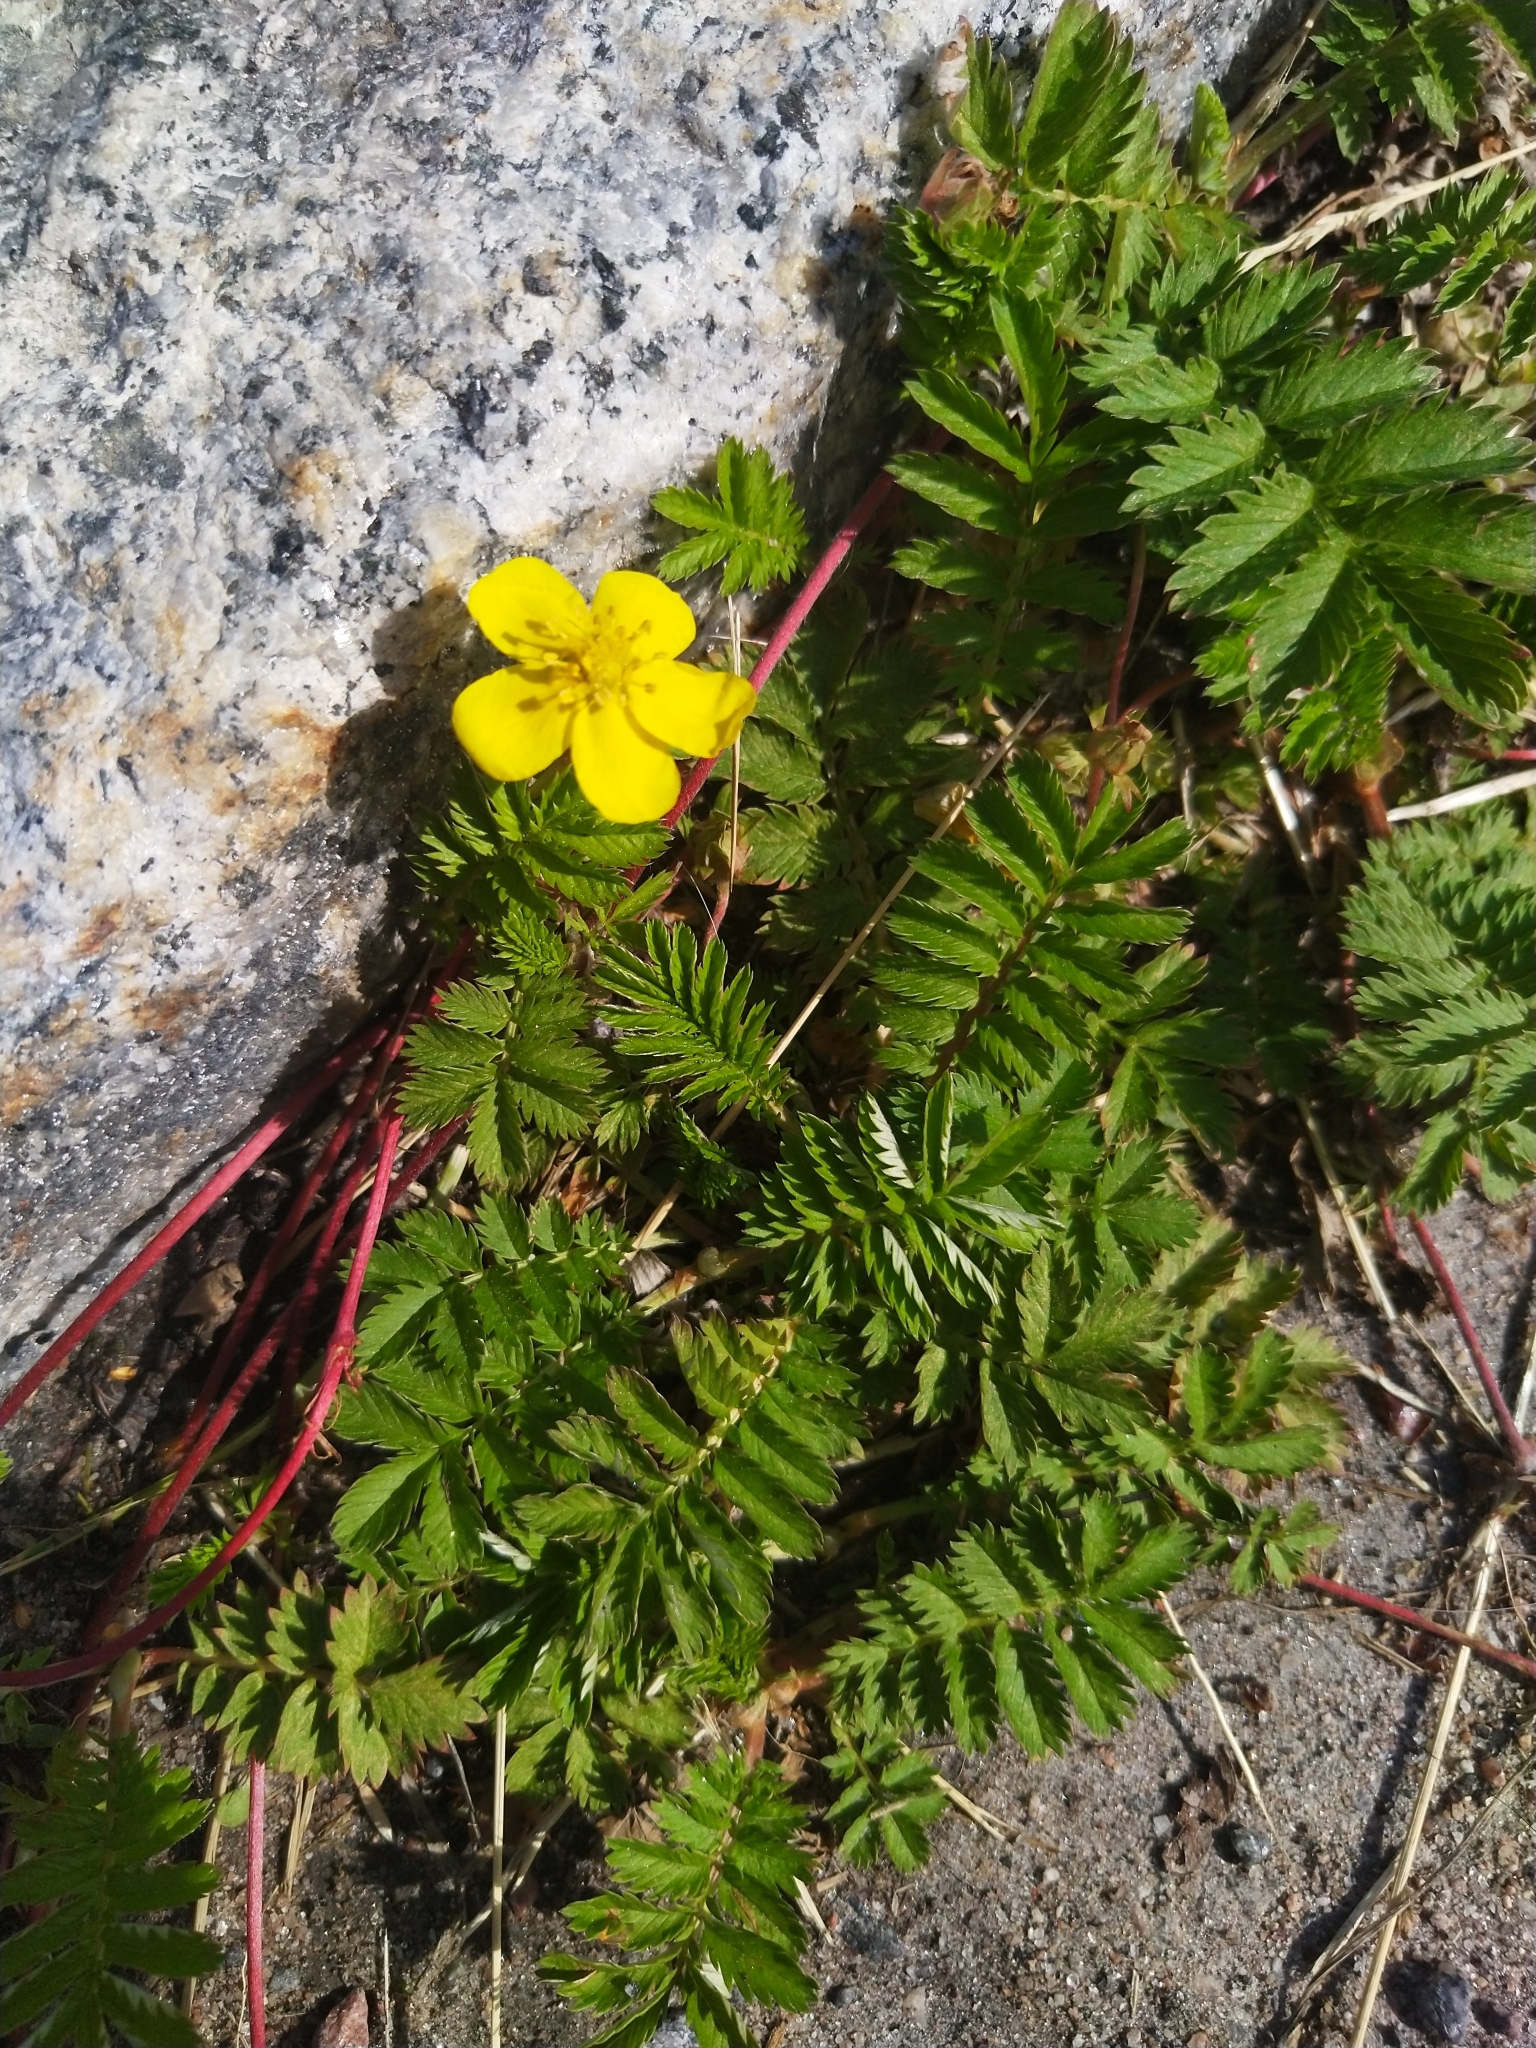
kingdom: Plantae
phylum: Tracheophyta
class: Magnoliopsida
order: Rosales
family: Rosaceae
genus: Argentina
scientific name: Argentina anserina
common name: Common silverweed
